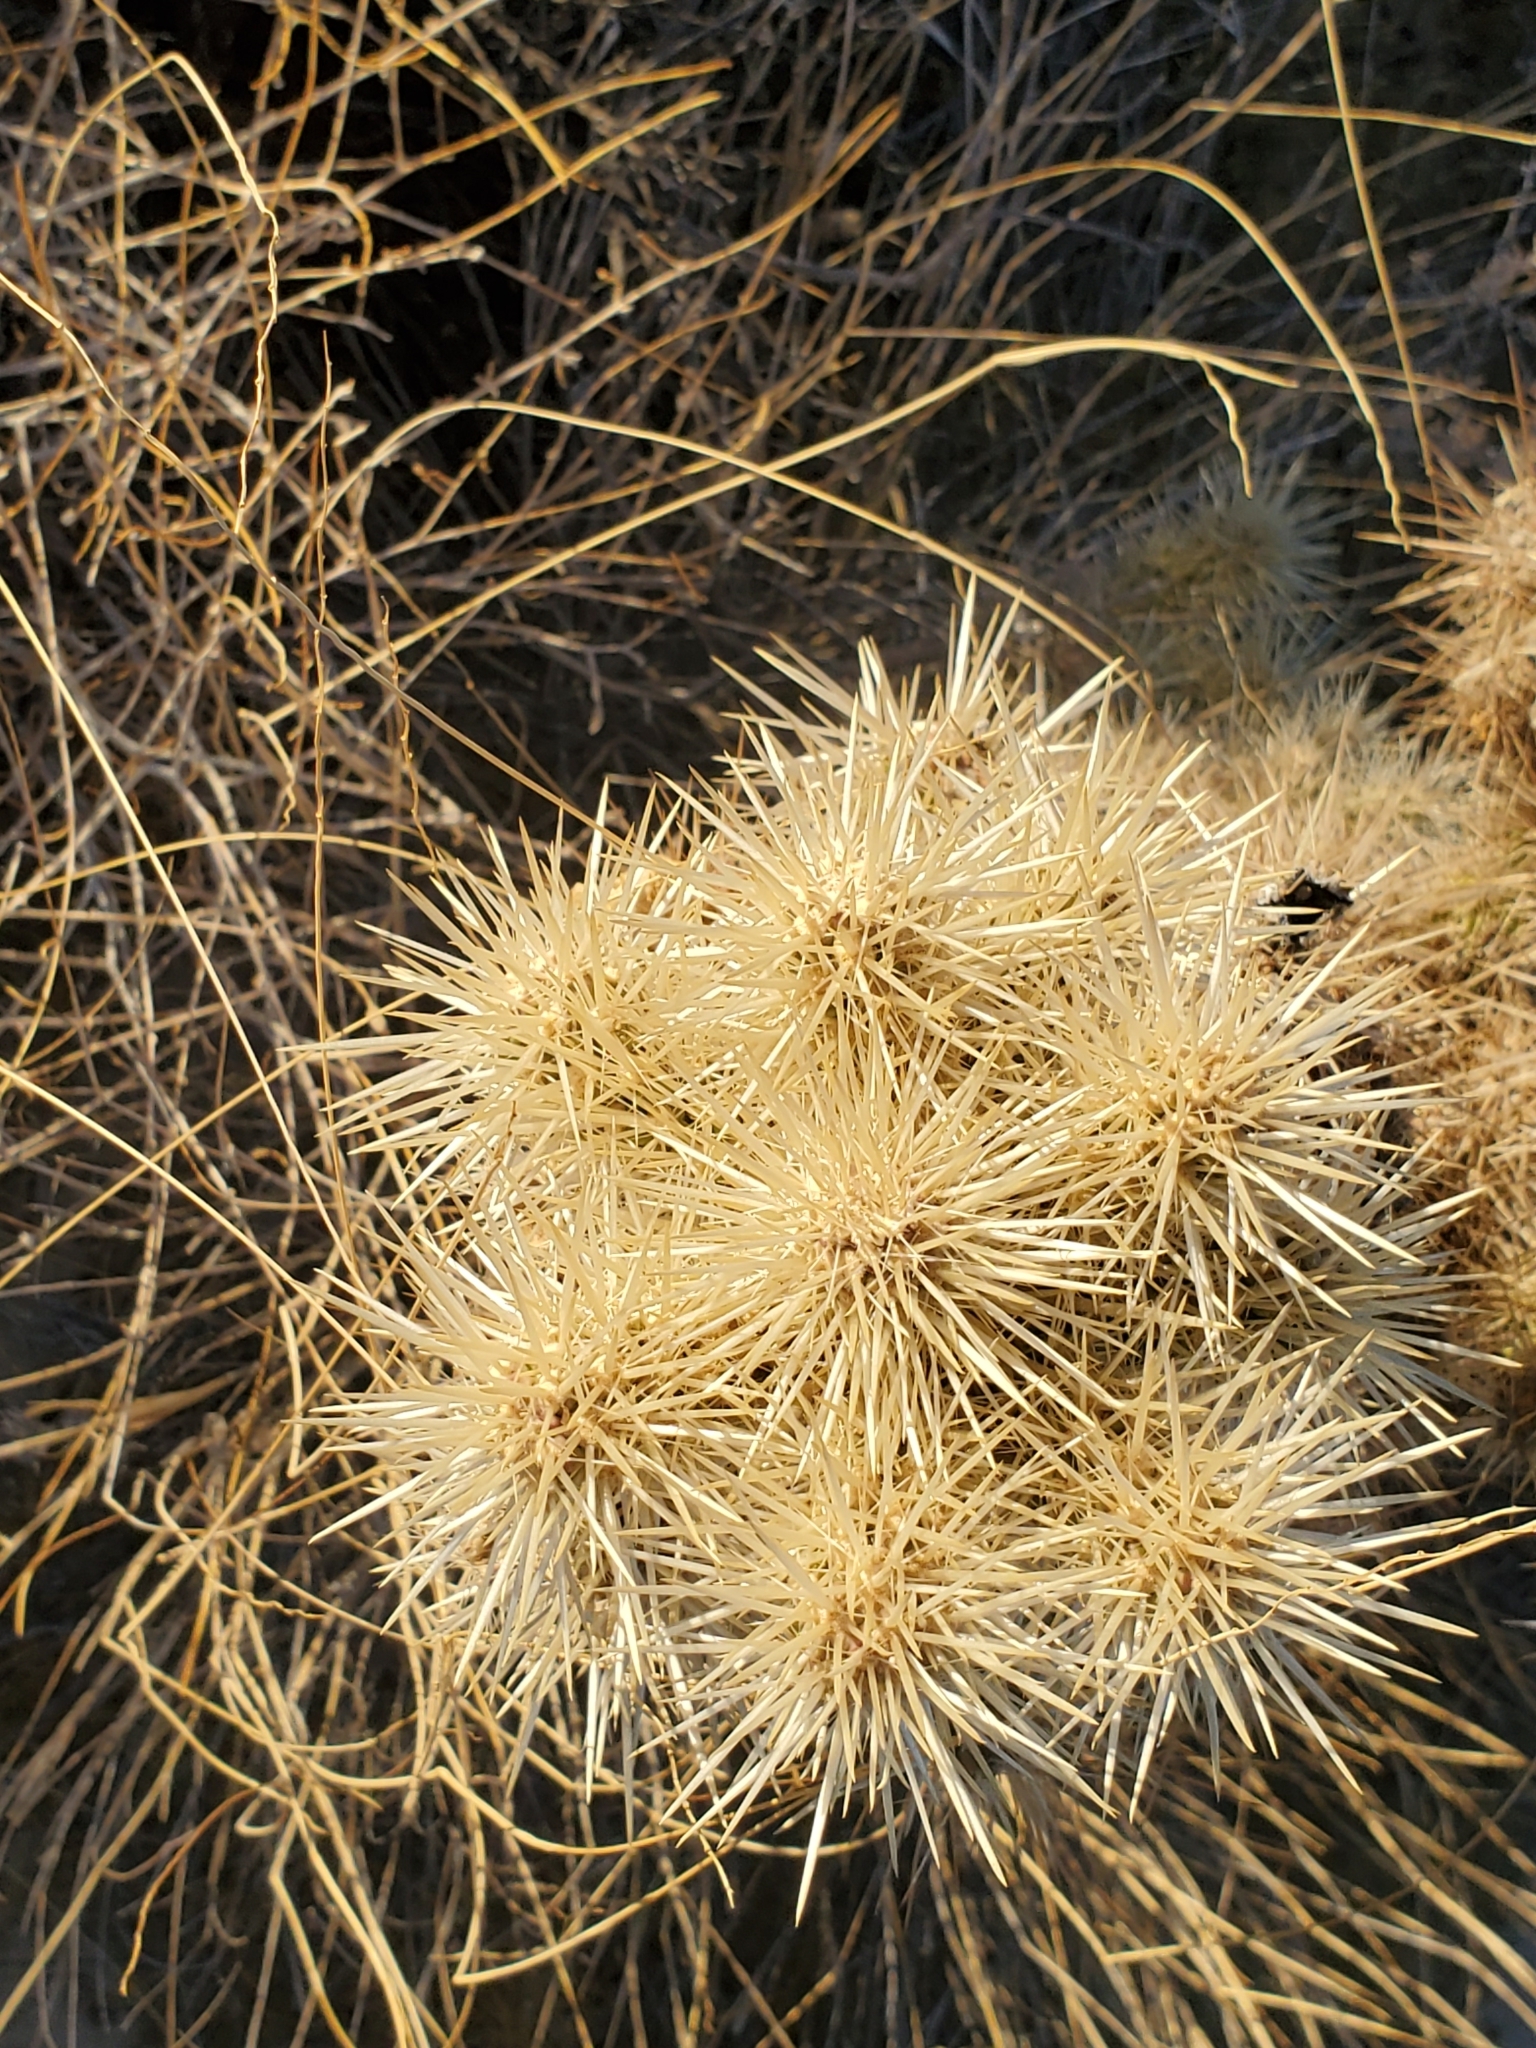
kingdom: Plantae
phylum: Tracheophyta
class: Magnoliopsida
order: Caryophyllales
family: Cactaceae
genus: Cylindropuntia
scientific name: Cylindropuntia echinocarpa
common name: Ground cholla
